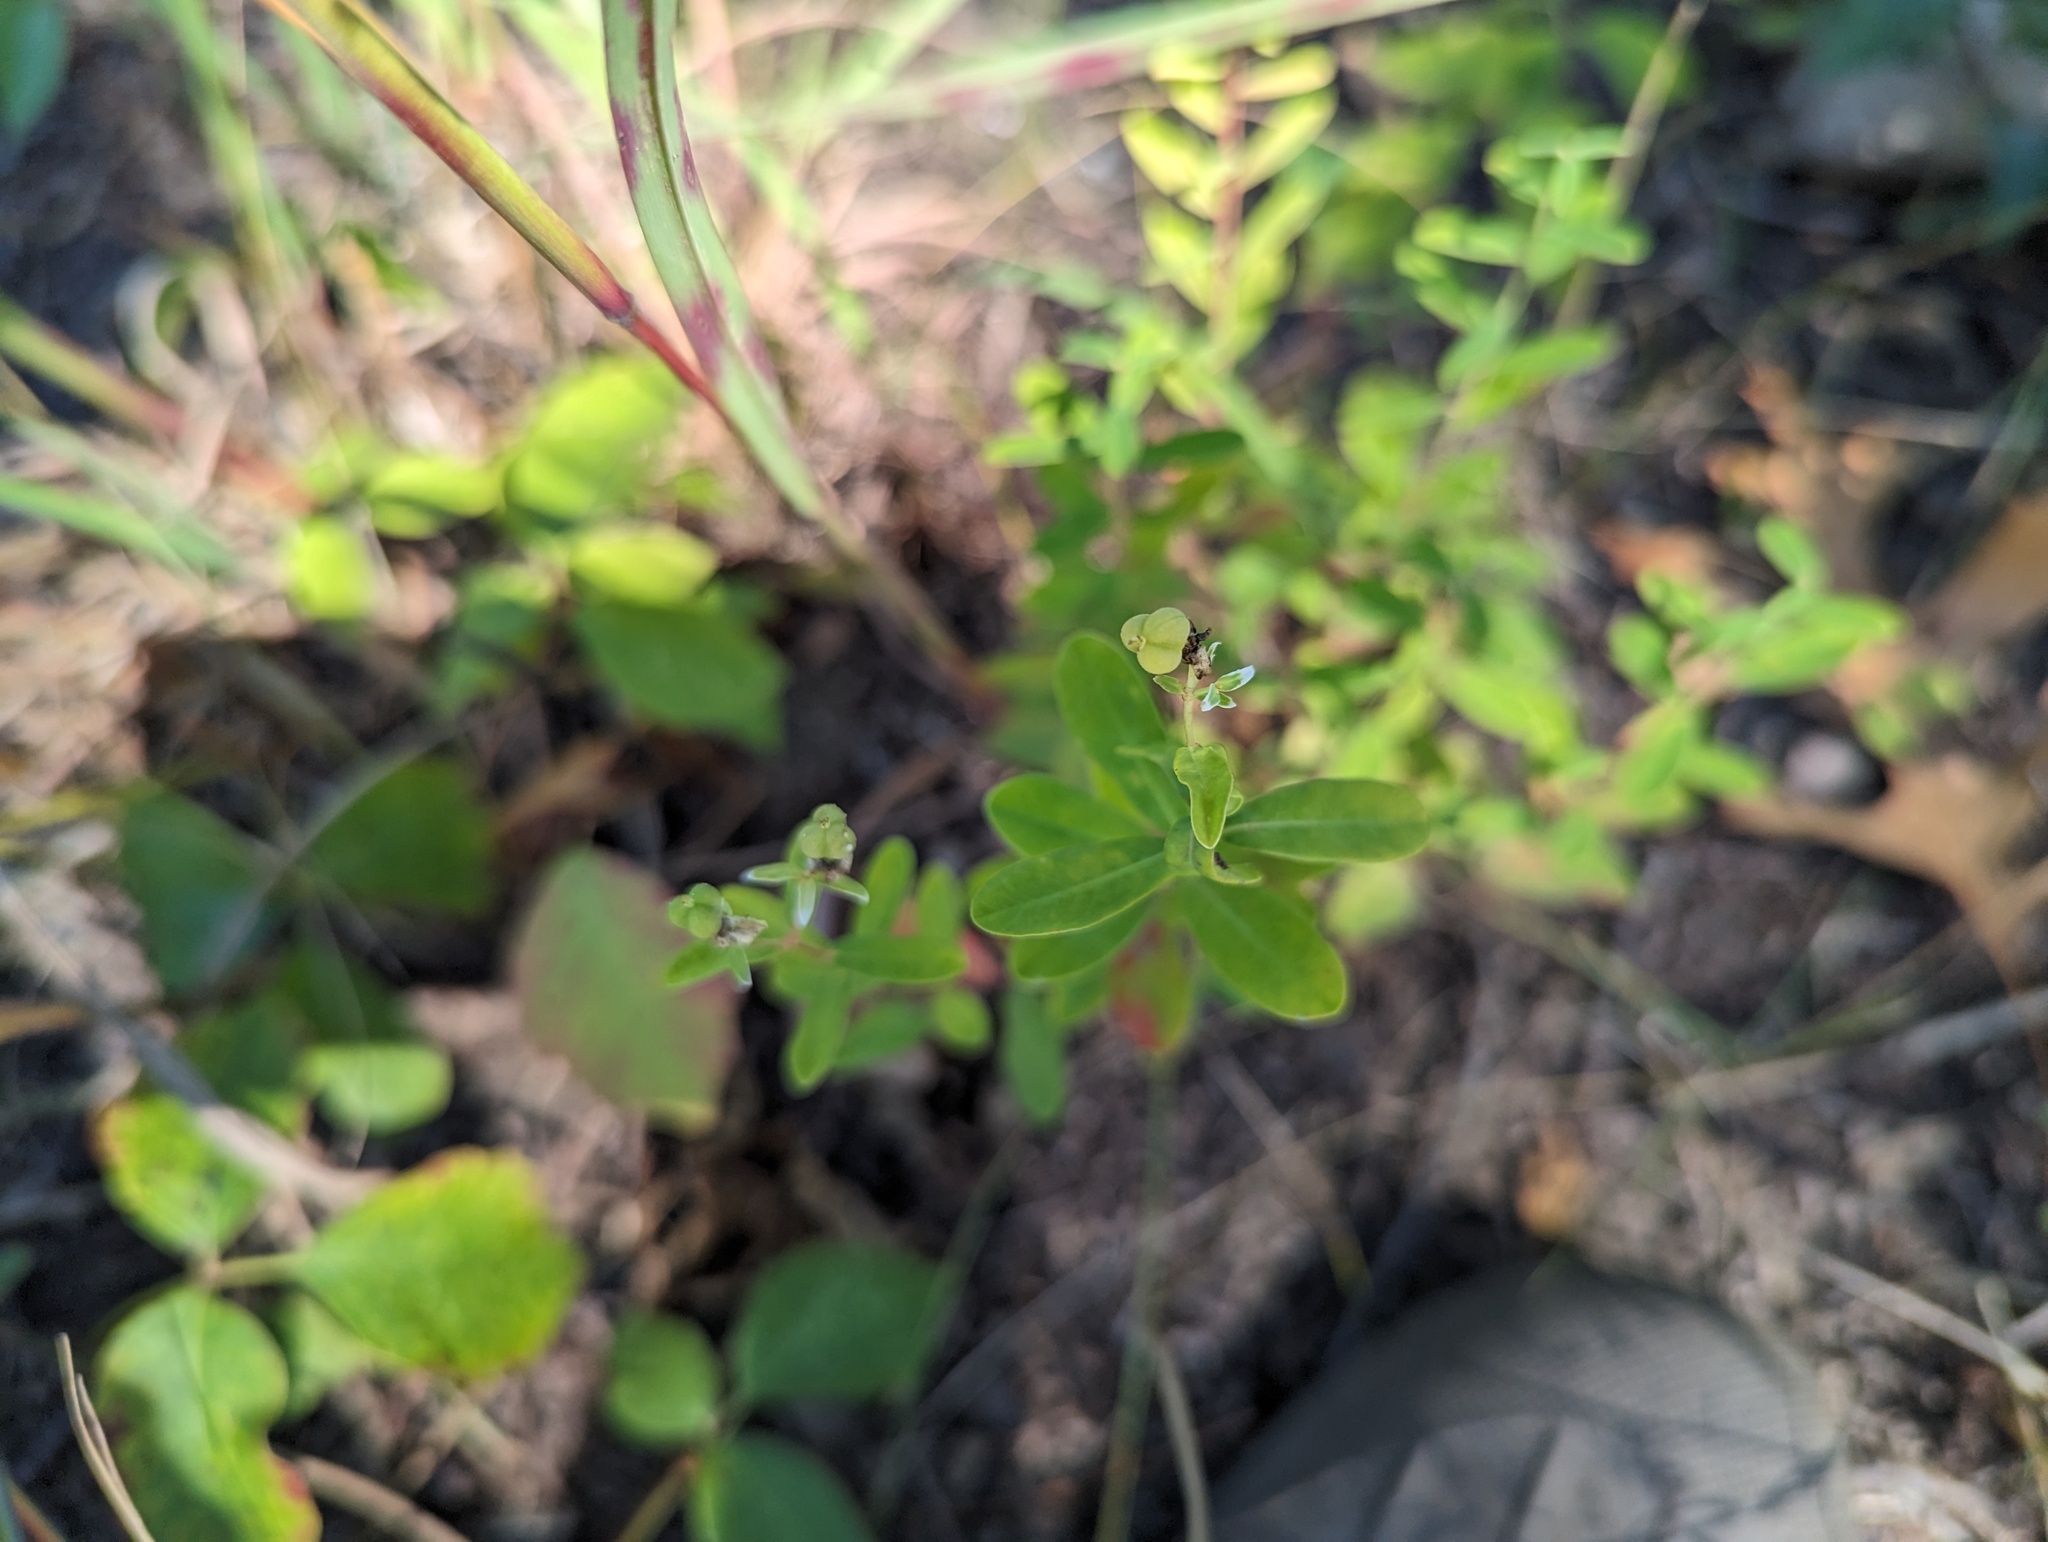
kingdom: Plantae
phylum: Tracheophyta
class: Magnoliopsida
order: Malpighiales
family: Euphorbiaceae
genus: Euphorbia
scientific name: Euphorbia corollata
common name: Flowering spurge
